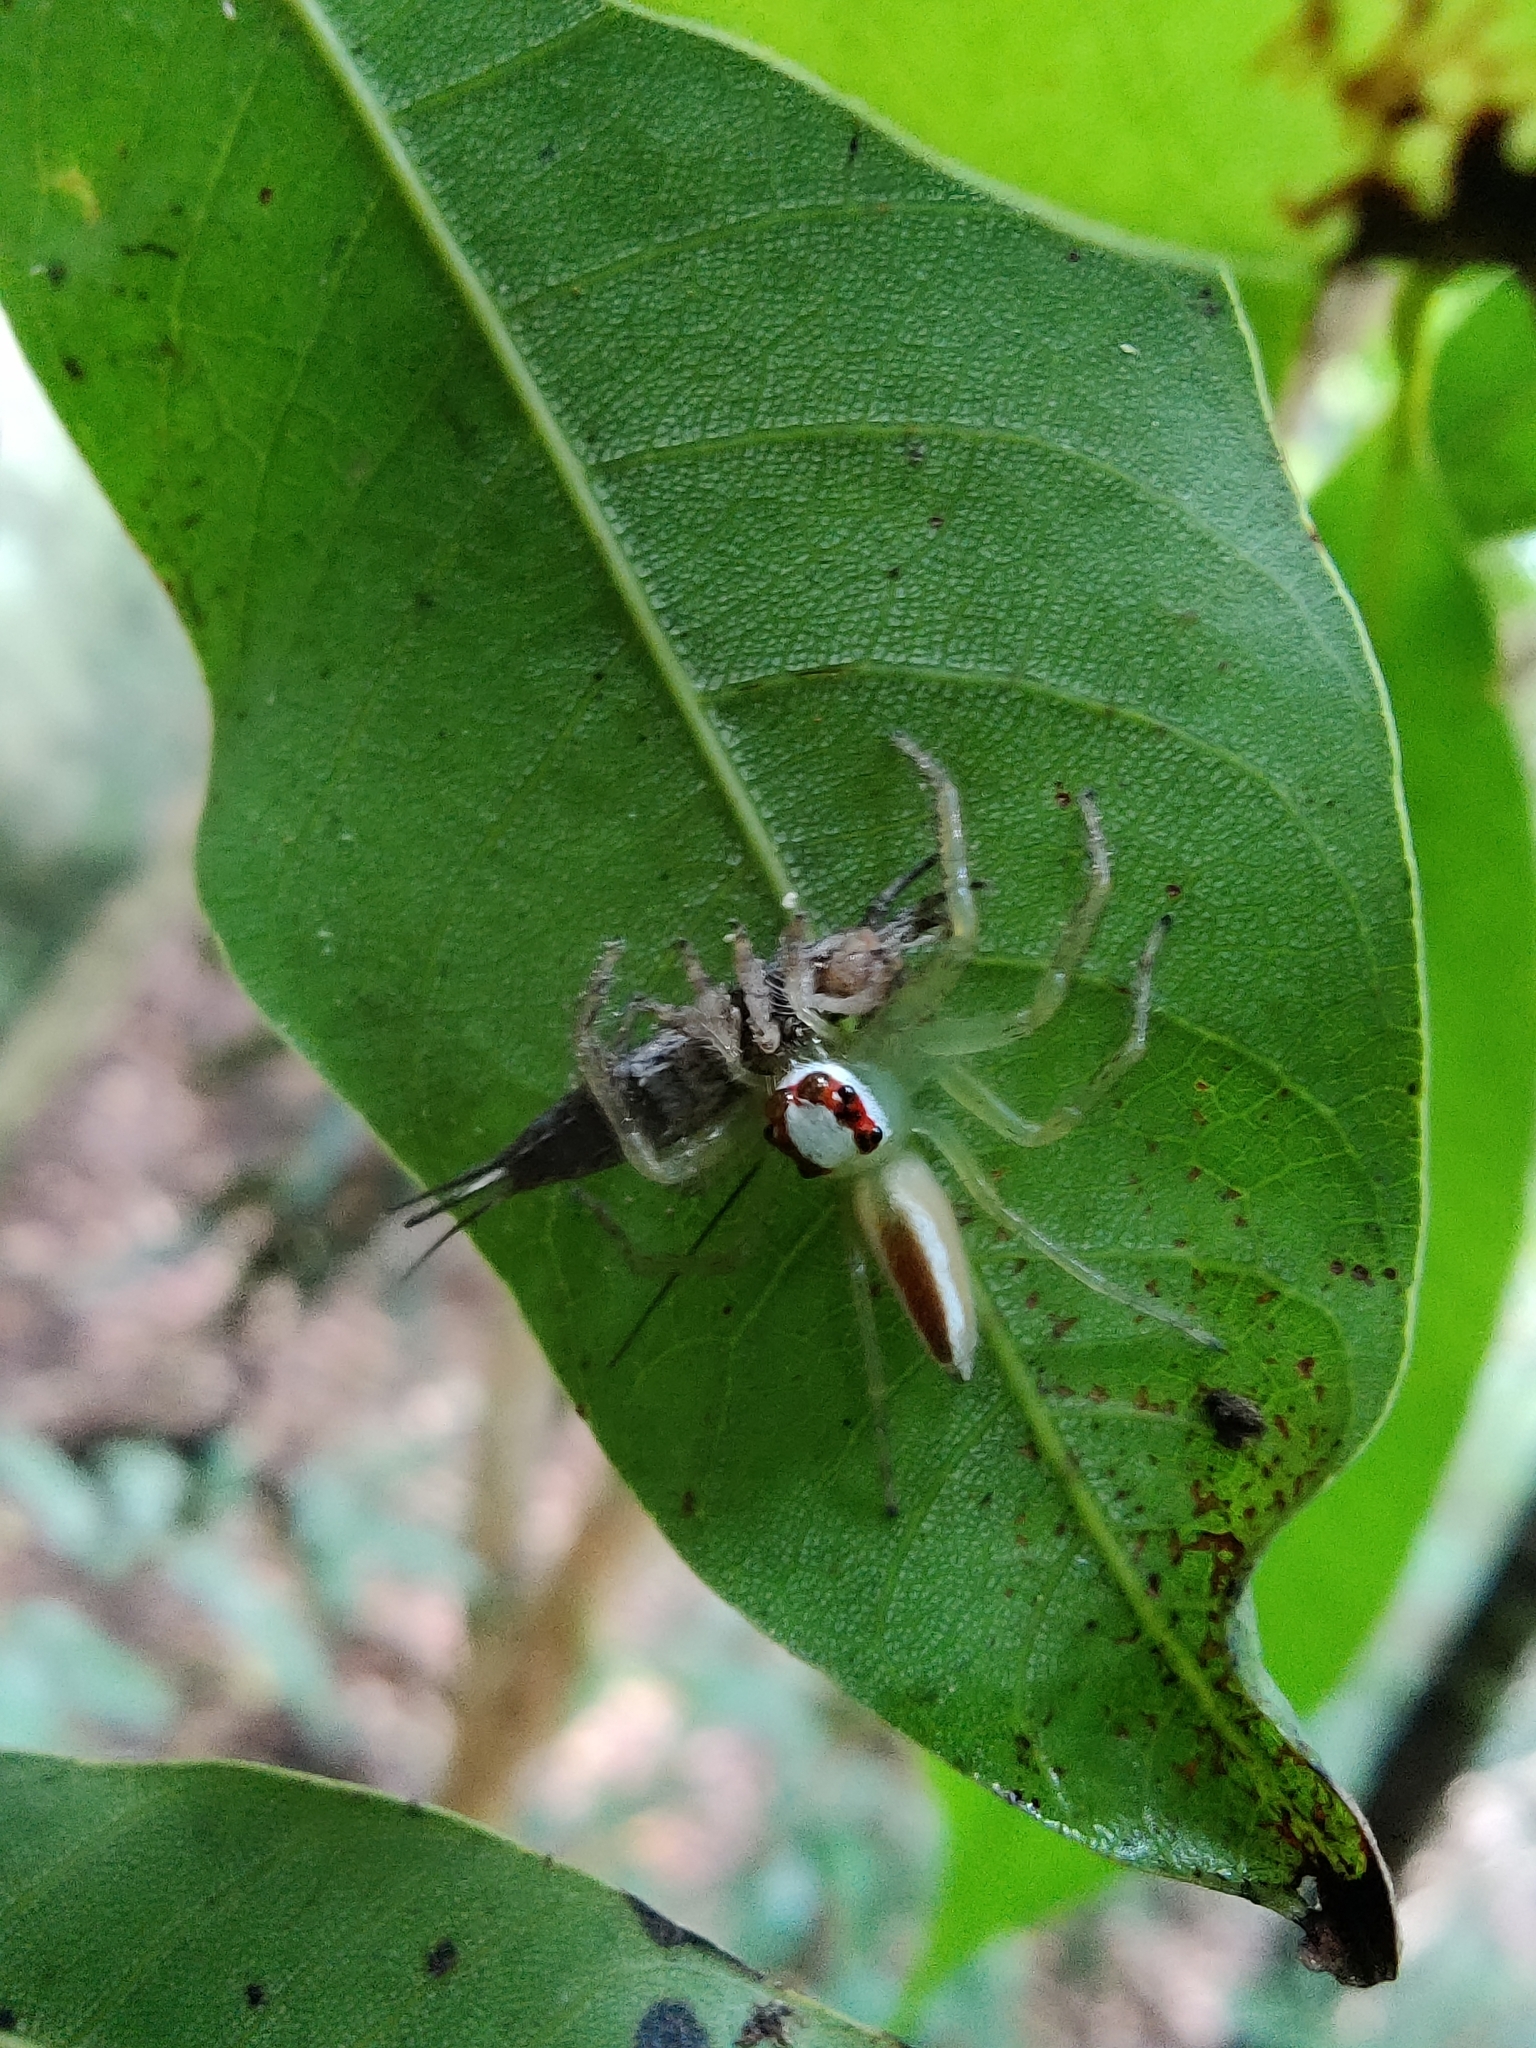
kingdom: Animalia
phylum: Arthropoda
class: Arachnida
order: Araneae
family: Salticidae
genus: Telamonia
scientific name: Telamonia dimidiata
